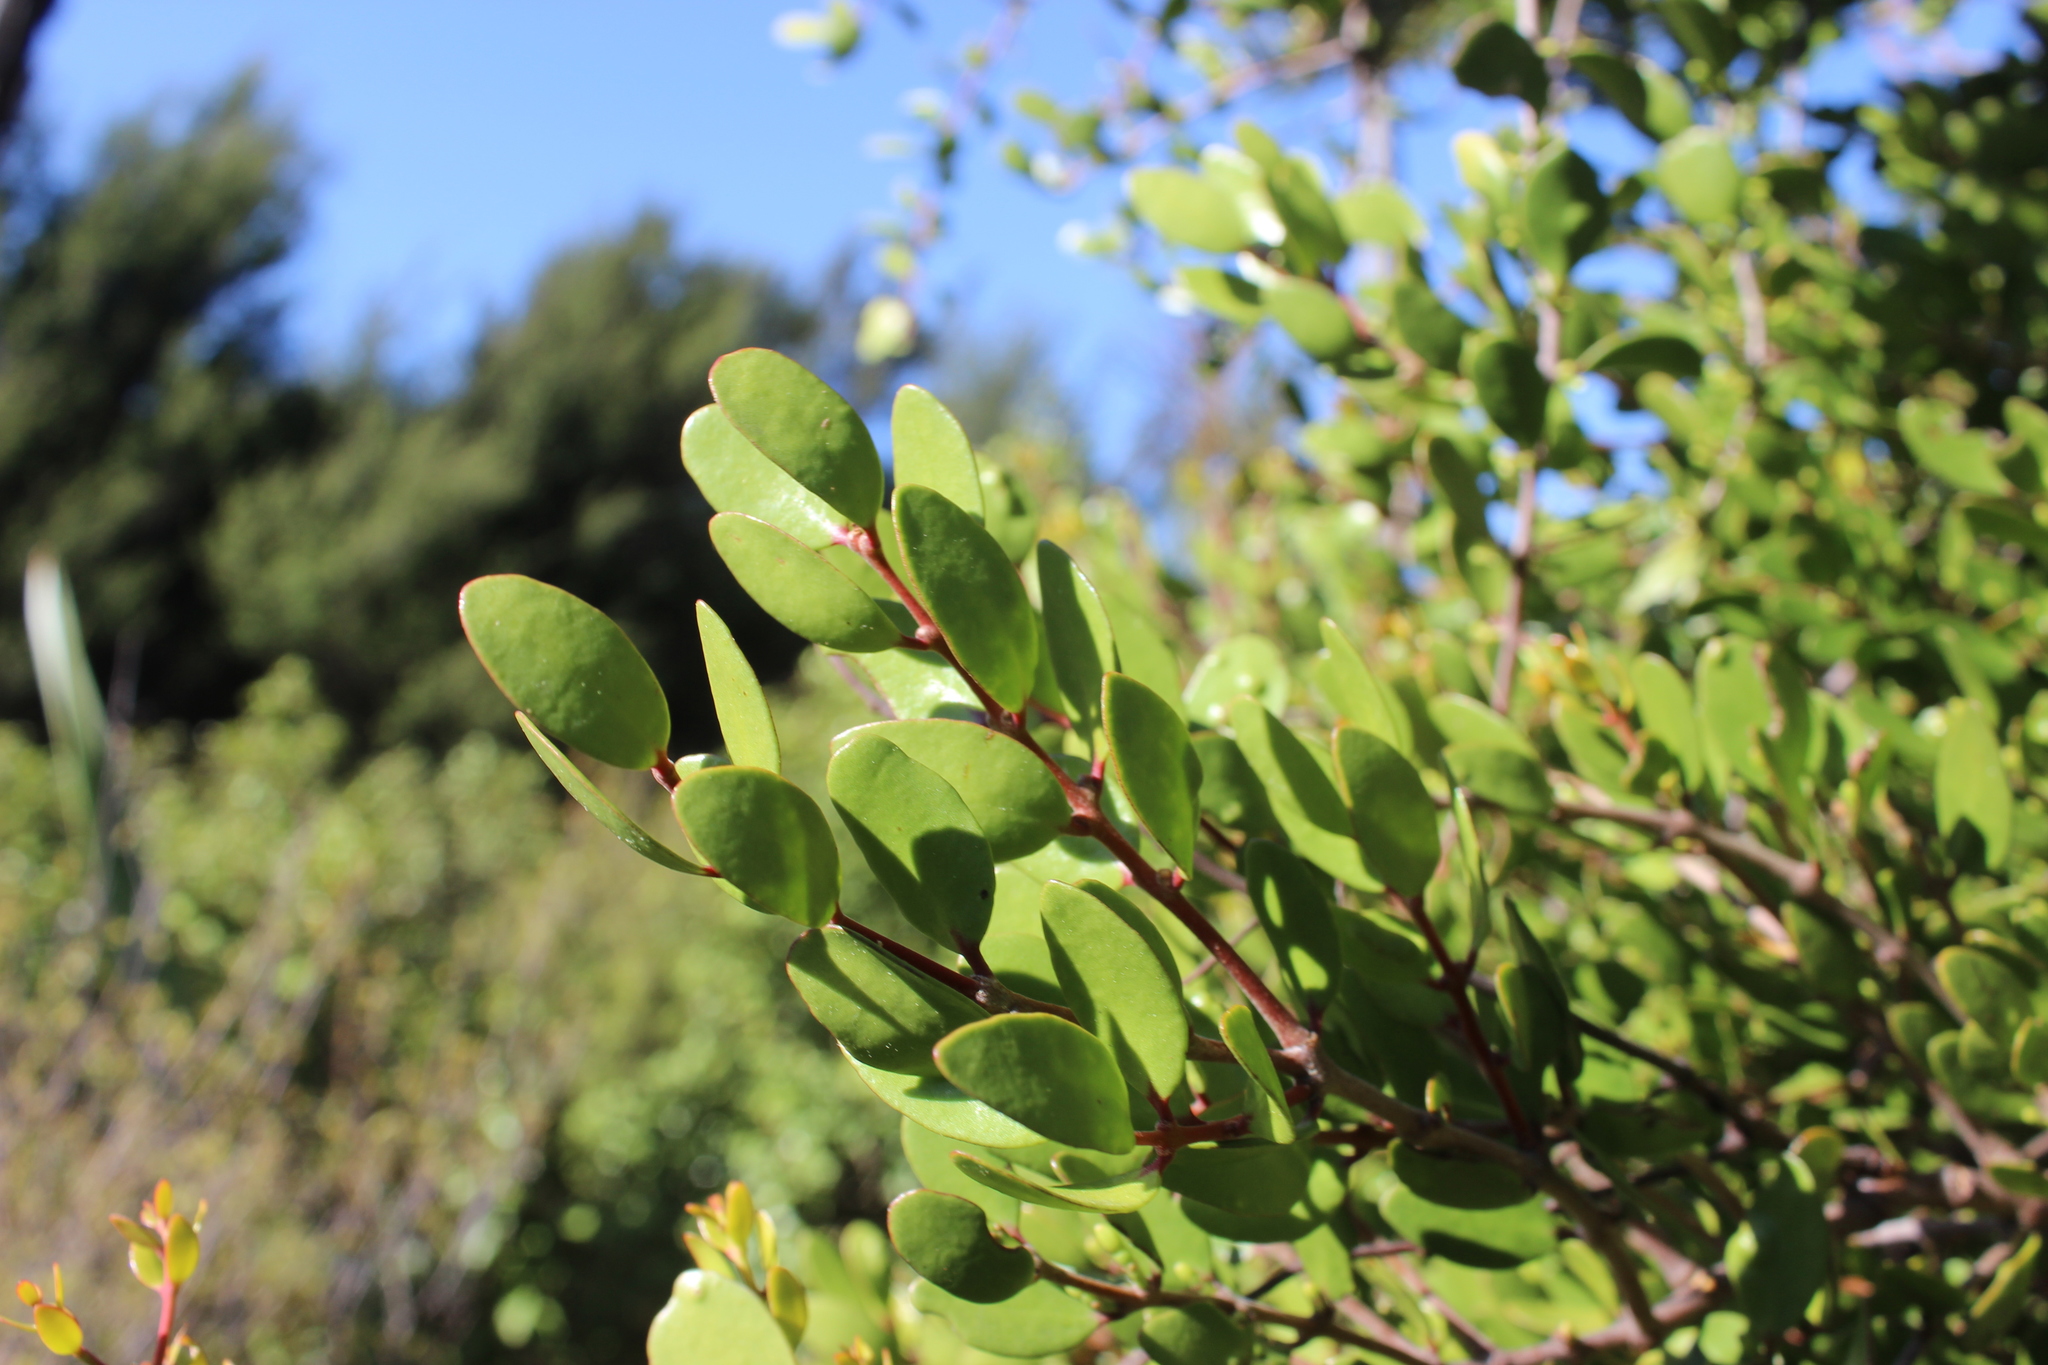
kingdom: Plantae
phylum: Tracheophyta
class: Magnoliopsida
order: Santalales
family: Loranthaceae
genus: Peraxilla
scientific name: Peraxilla tetrapetala
